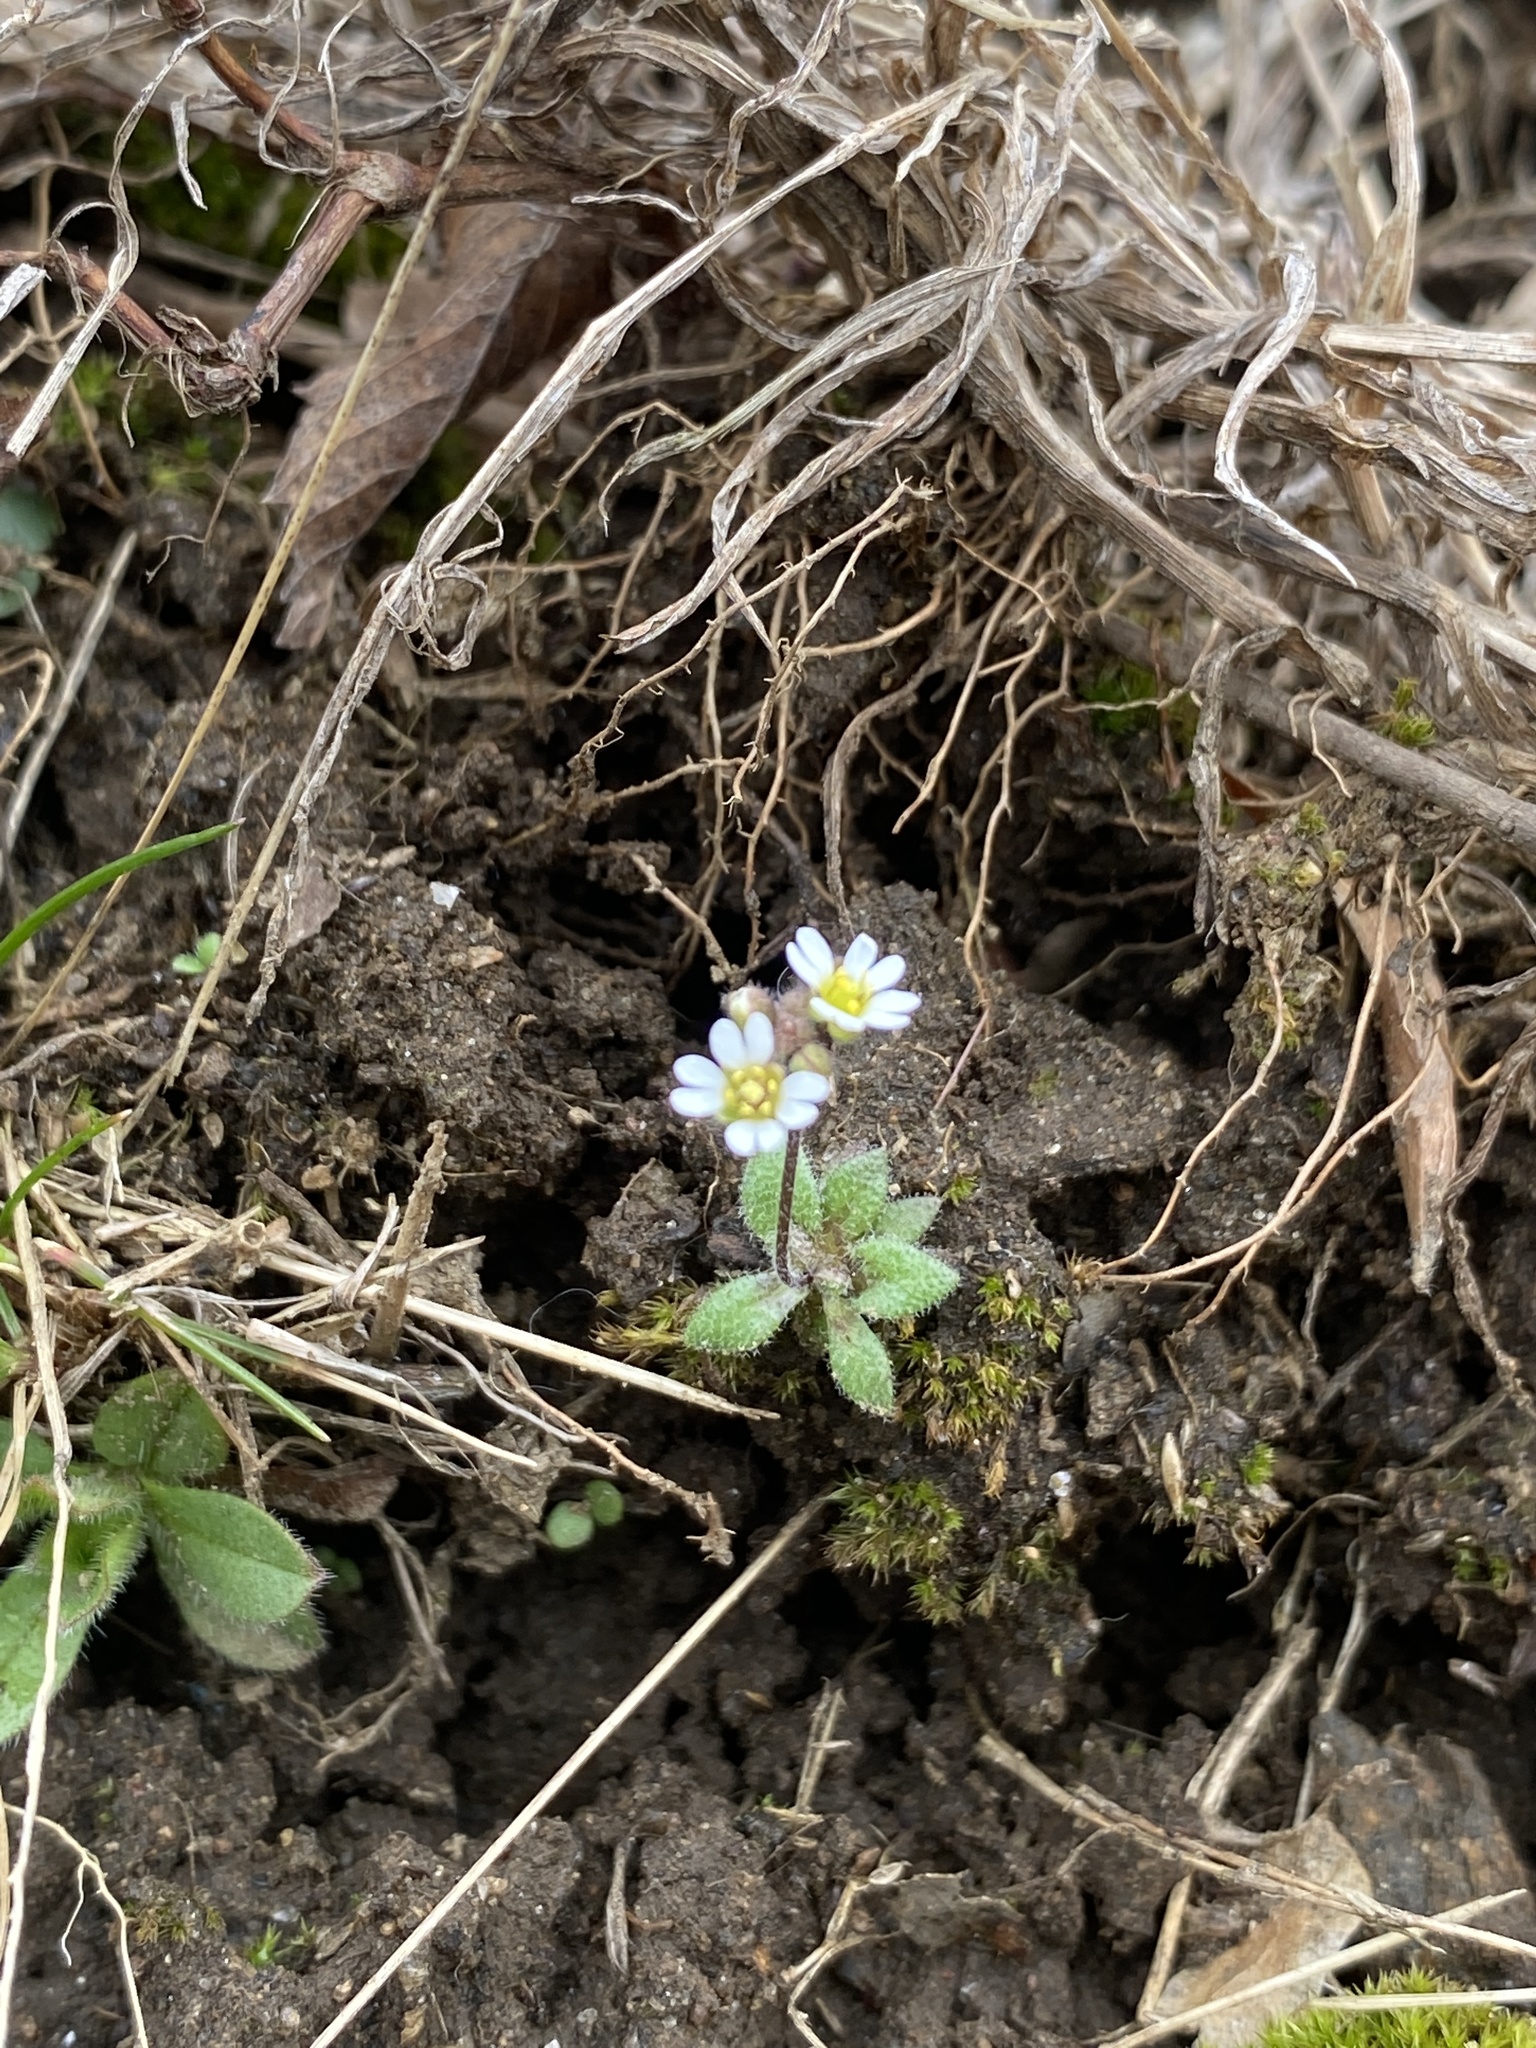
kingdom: Plantae
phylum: Tracheophyta
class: Magnoliopsida
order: Brassicales
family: Brassicaceae
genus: Draba
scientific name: Draba verna
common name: Spring draba
